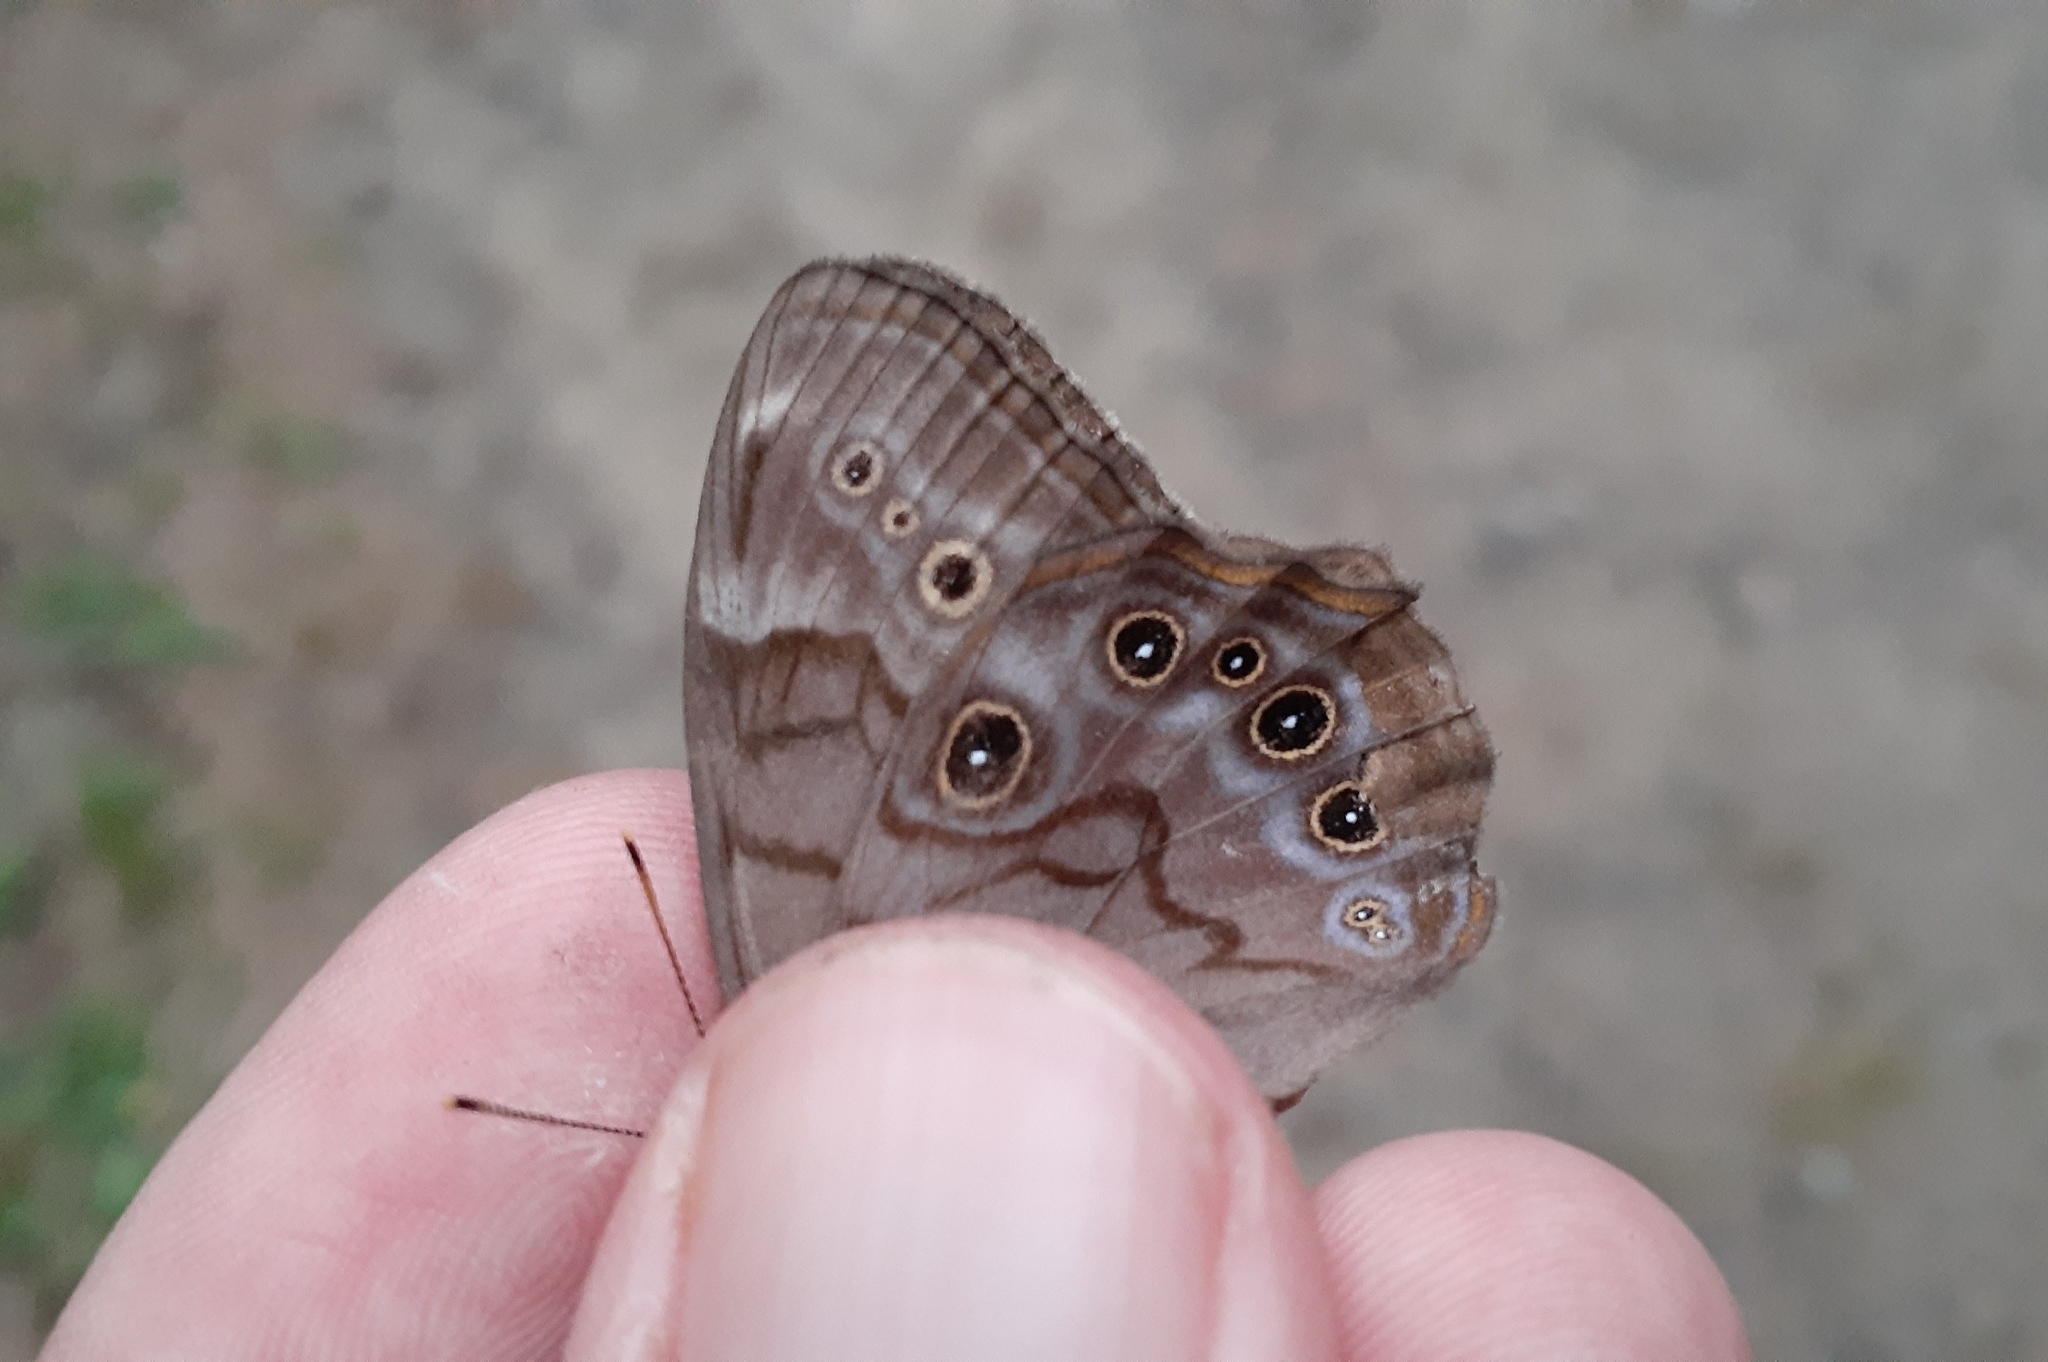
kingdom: Animalia
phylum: Arthropoda
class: Insecta
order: Lepidoptera
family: Nymphalidae
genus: Lethe
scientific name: Lethe anthedon
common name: Northern pearly-eye
